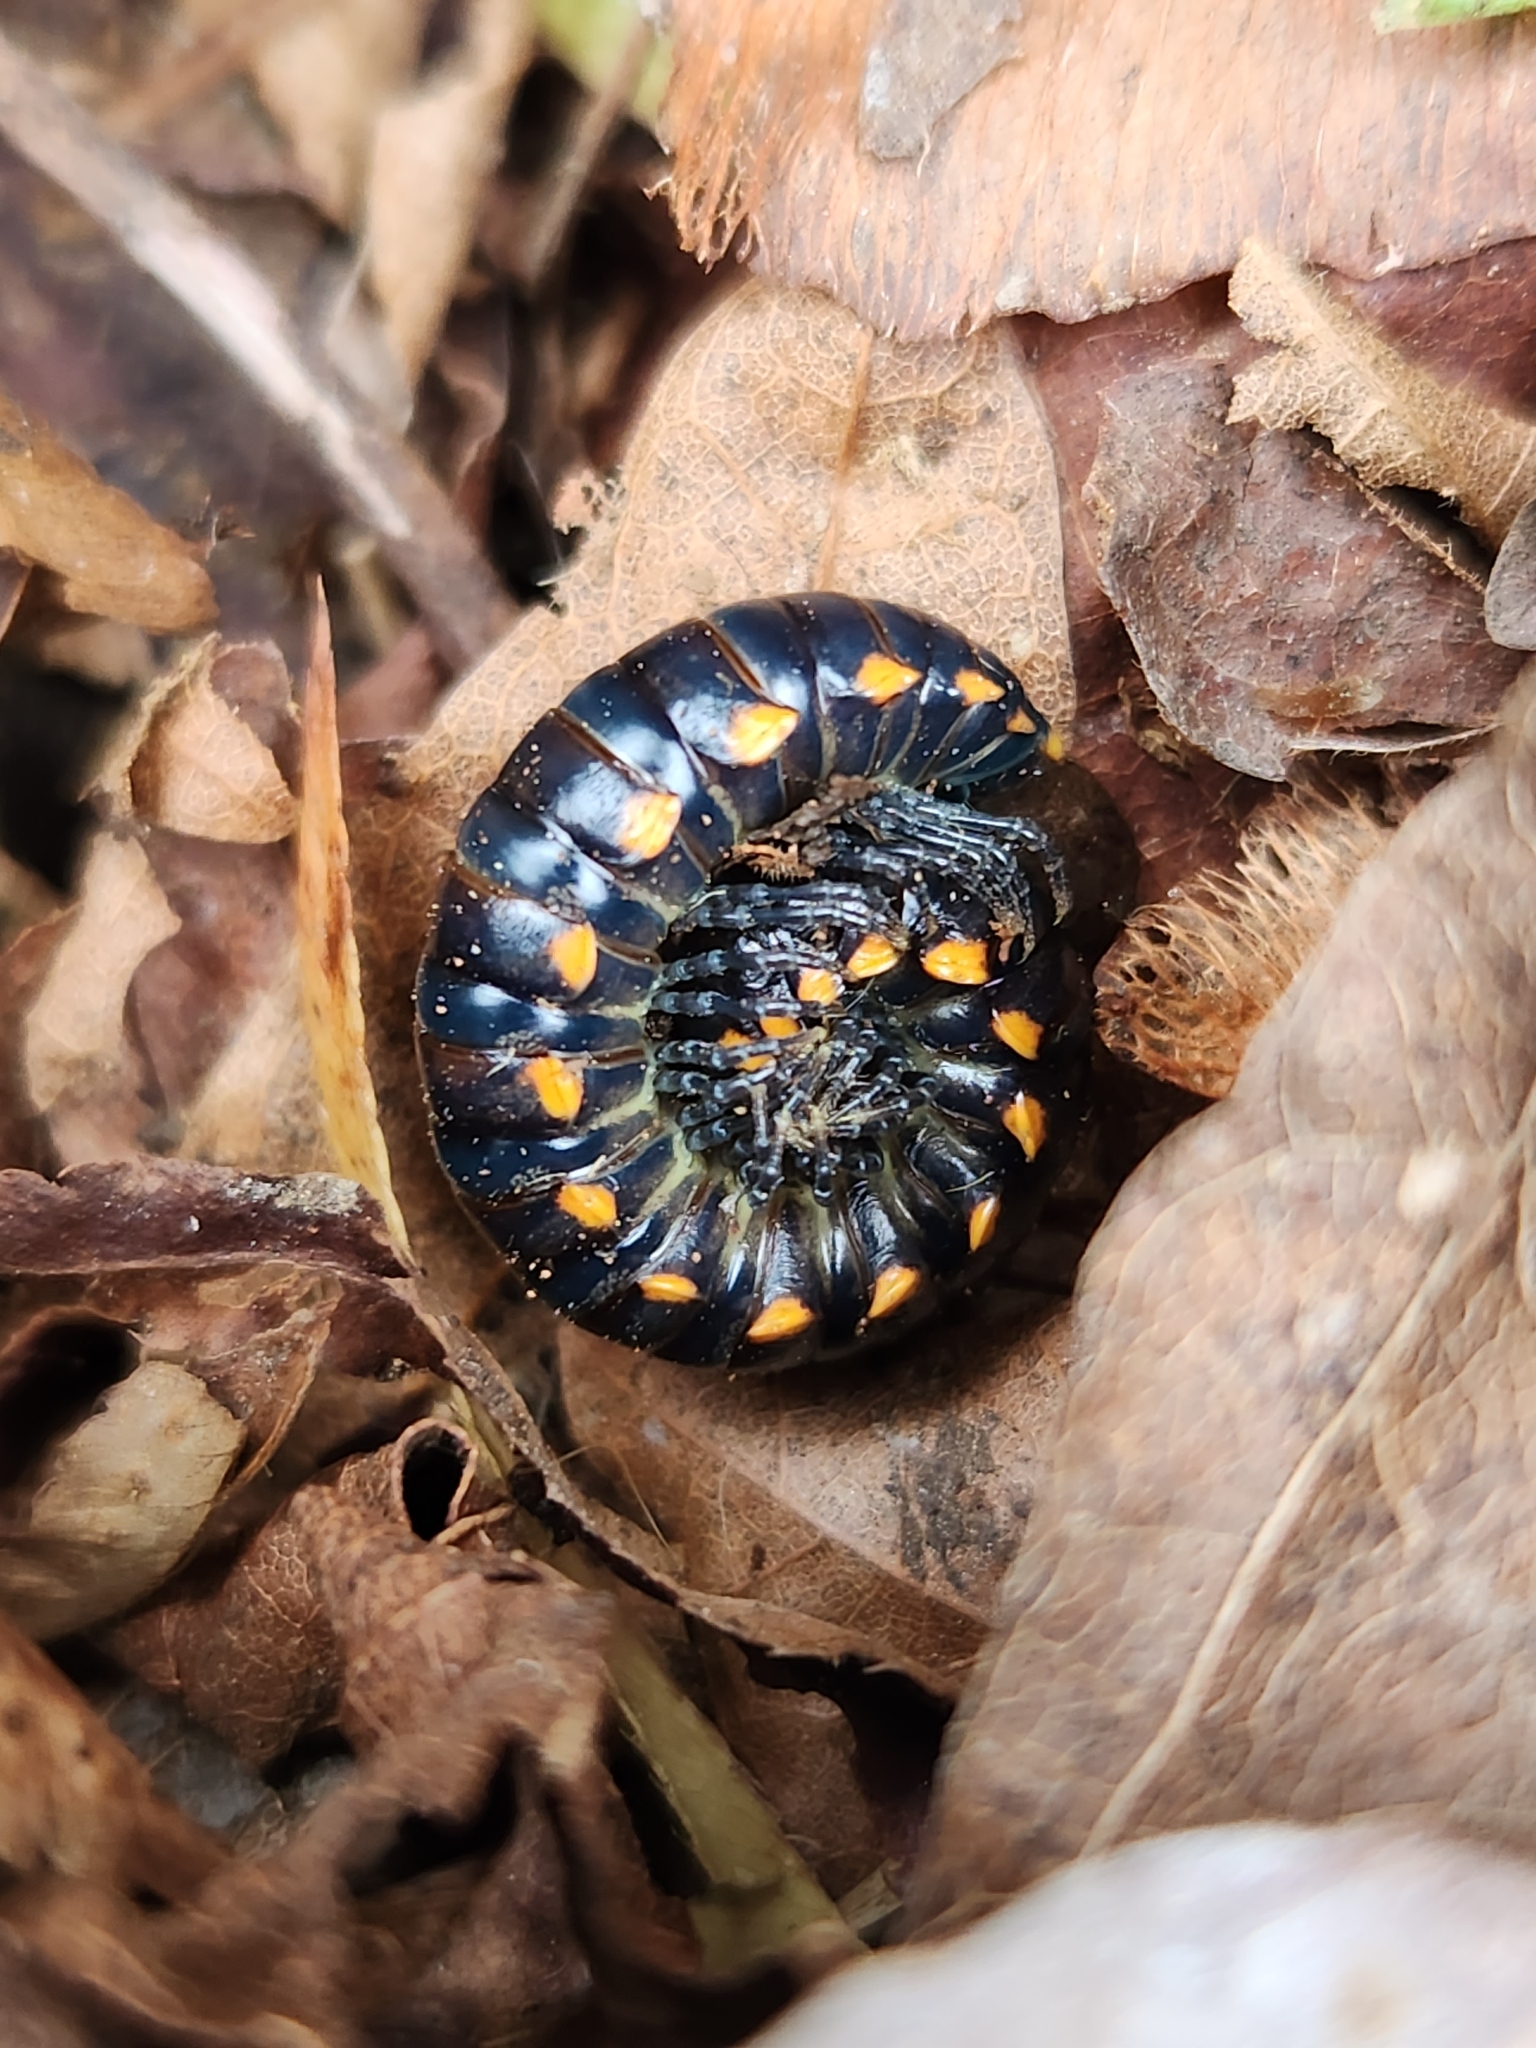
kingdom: Animalia
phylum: Arthropoda
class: Diplopoda
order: Polydesmida
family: Xystodesmidae
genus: Harpaphe
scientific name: Harpaphe haydeniana
